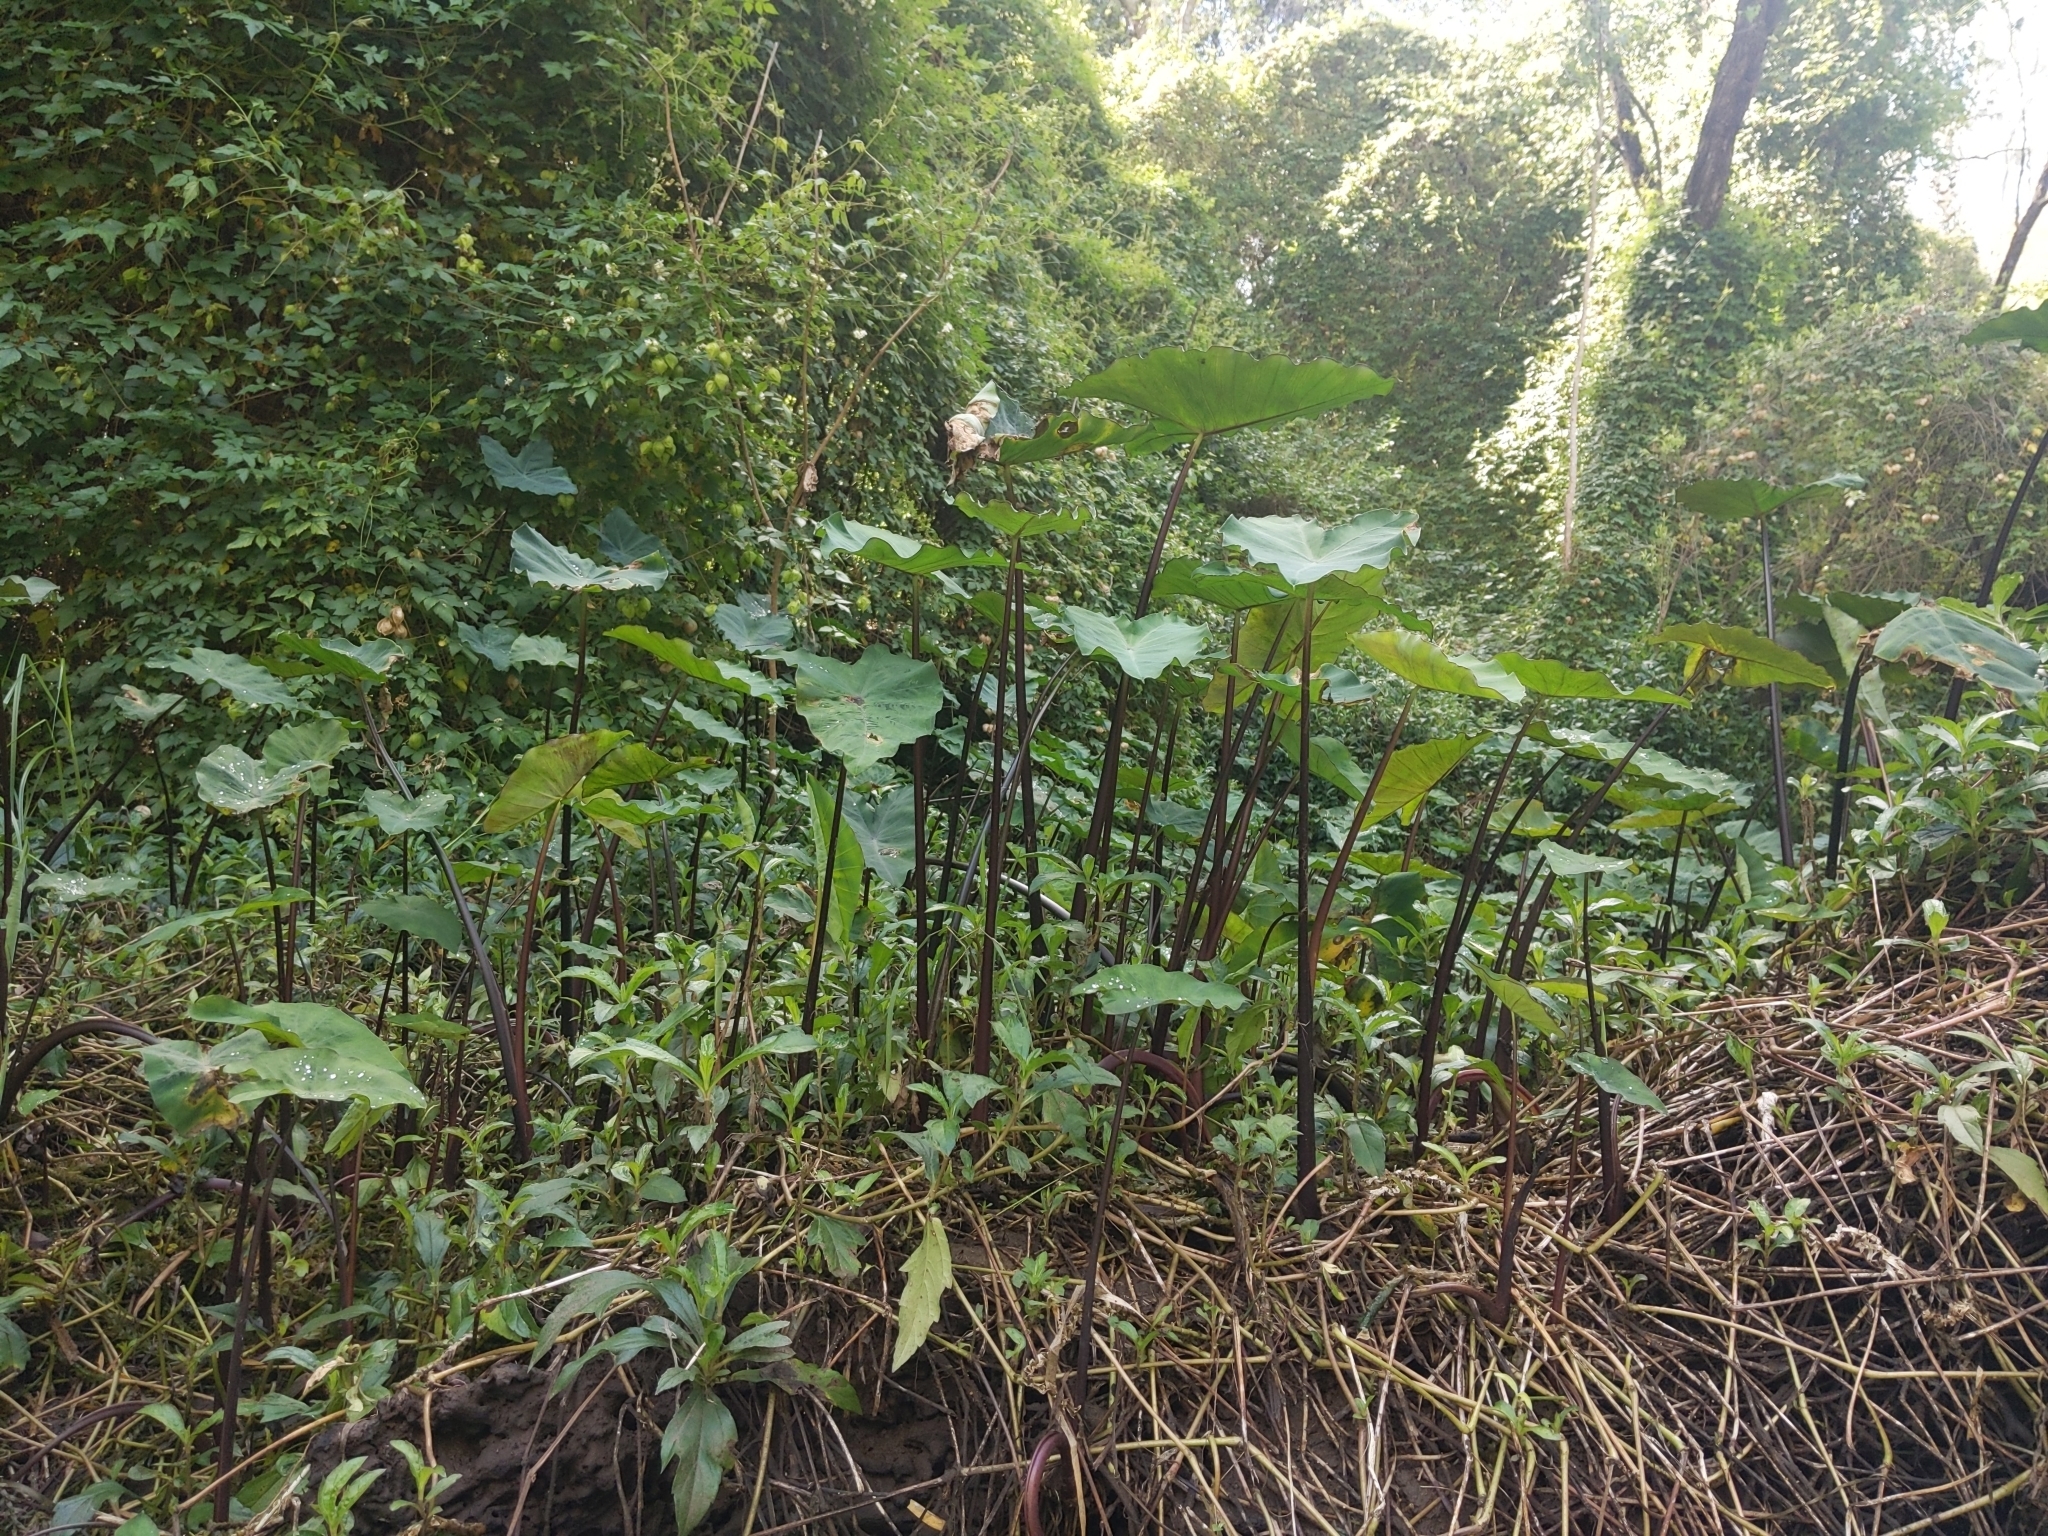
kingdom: Plantae
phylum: Tracheophyta
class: Liliopsida
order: Alismatales
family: Araceae
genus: Colocasia
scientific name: Colocasia esculenta
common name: Taro
